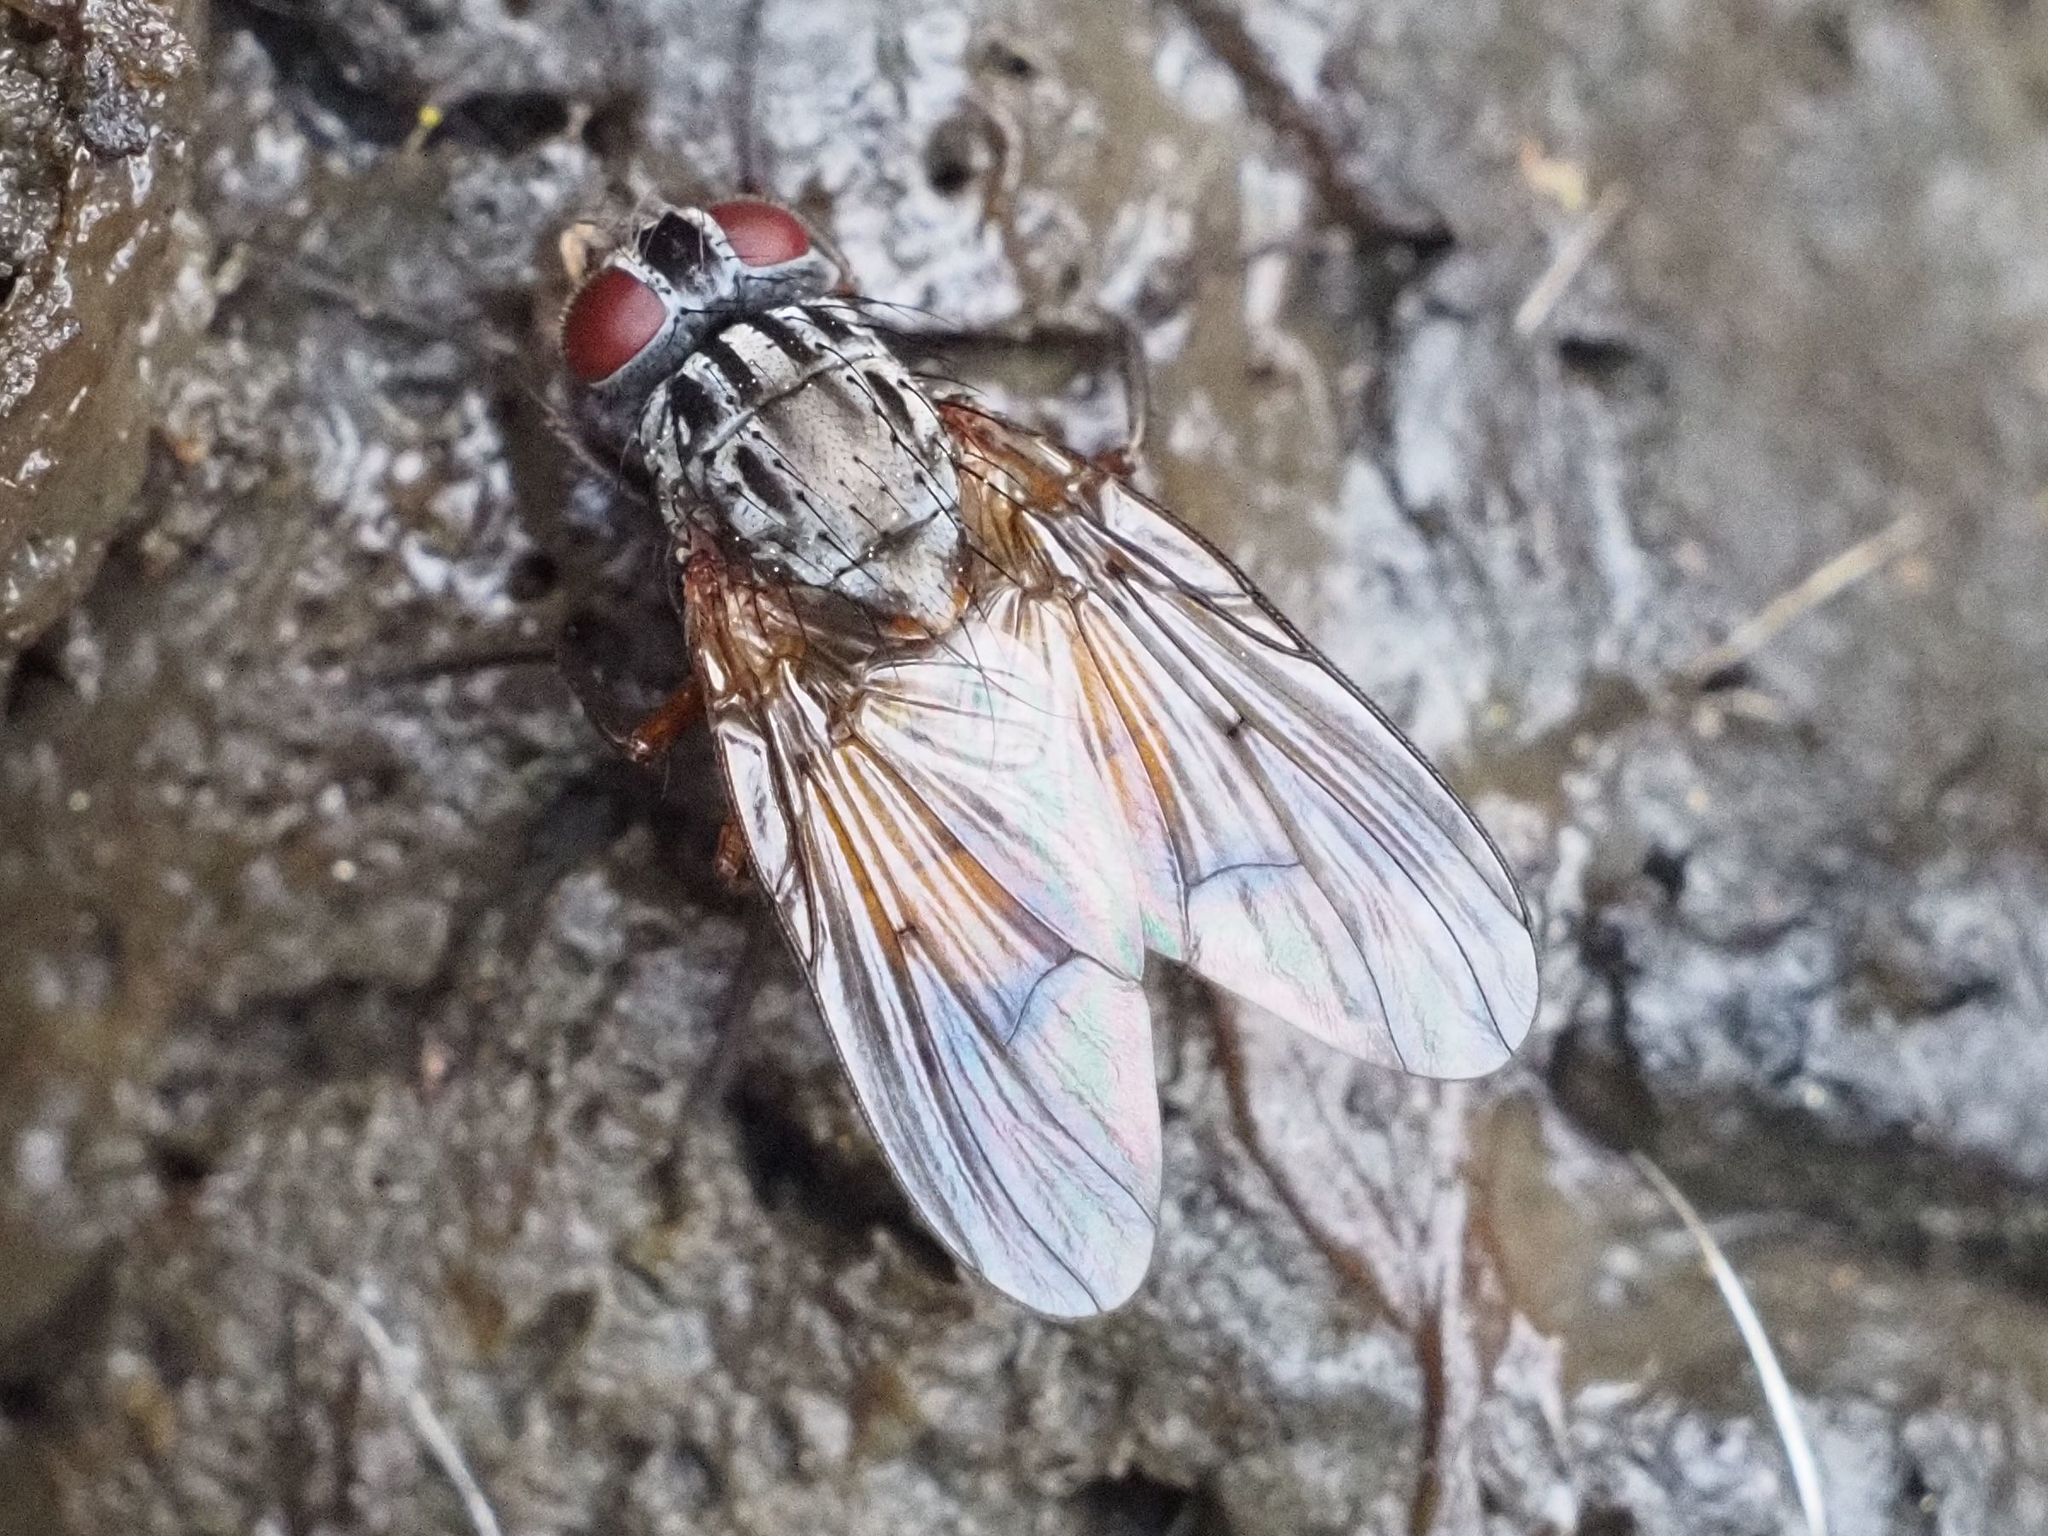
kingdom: Animalia
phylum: Arthropoda
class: Insecta
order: Diptera
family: Muscidae
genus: Phaonia
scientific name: Phaonia subventa
